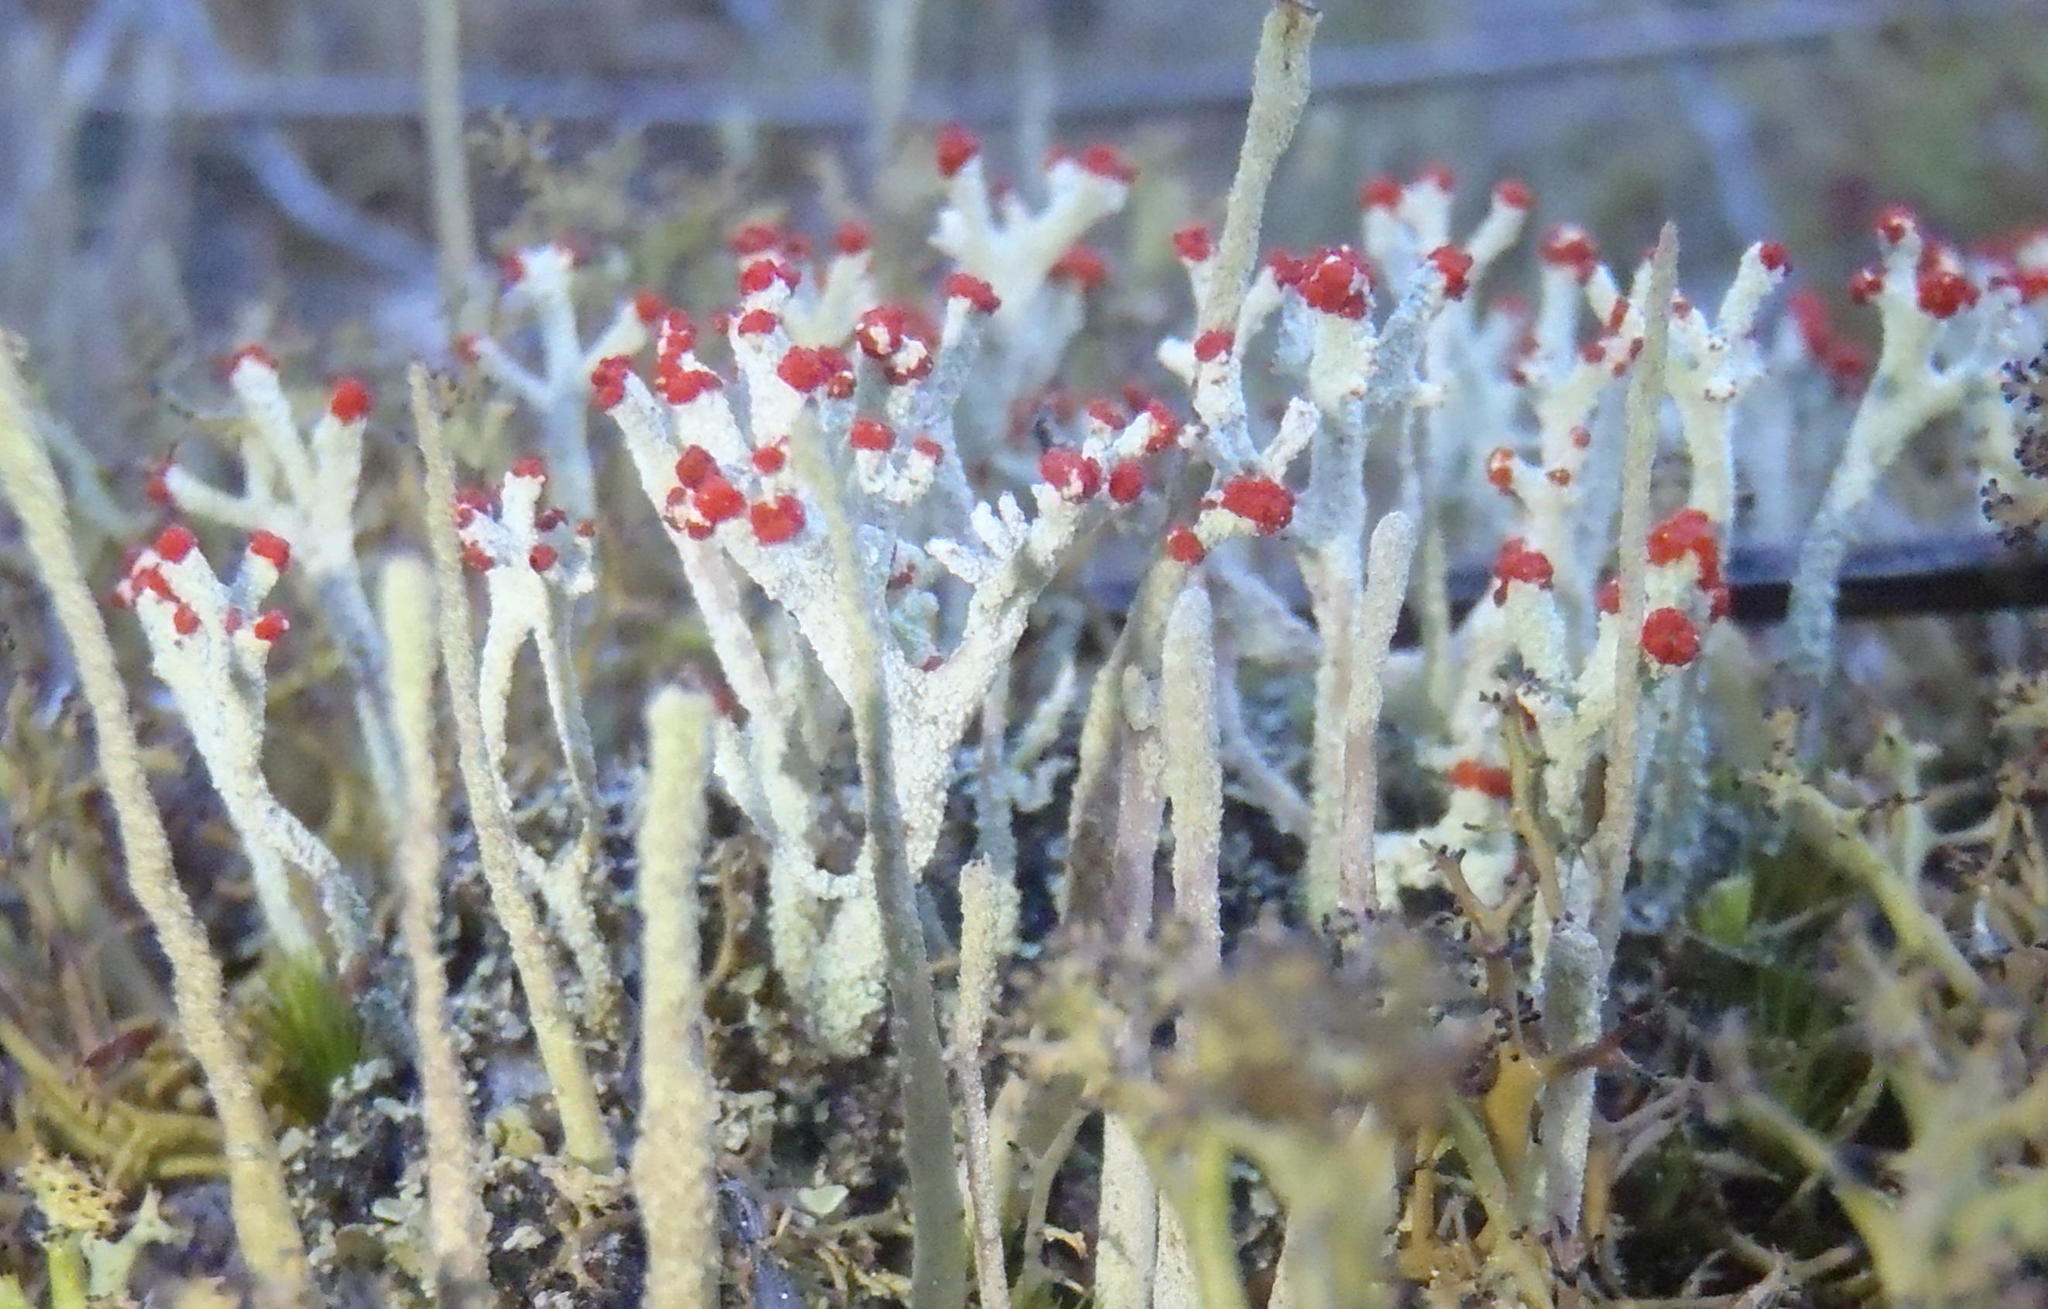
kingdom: Fungi
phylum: Ascomycota
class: Lecanoromycetes
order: Lecanorales
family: Cladoniaceae
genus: Cladonia
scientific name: Cladonia floerkeana
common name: Gritty british soldiers lichen
